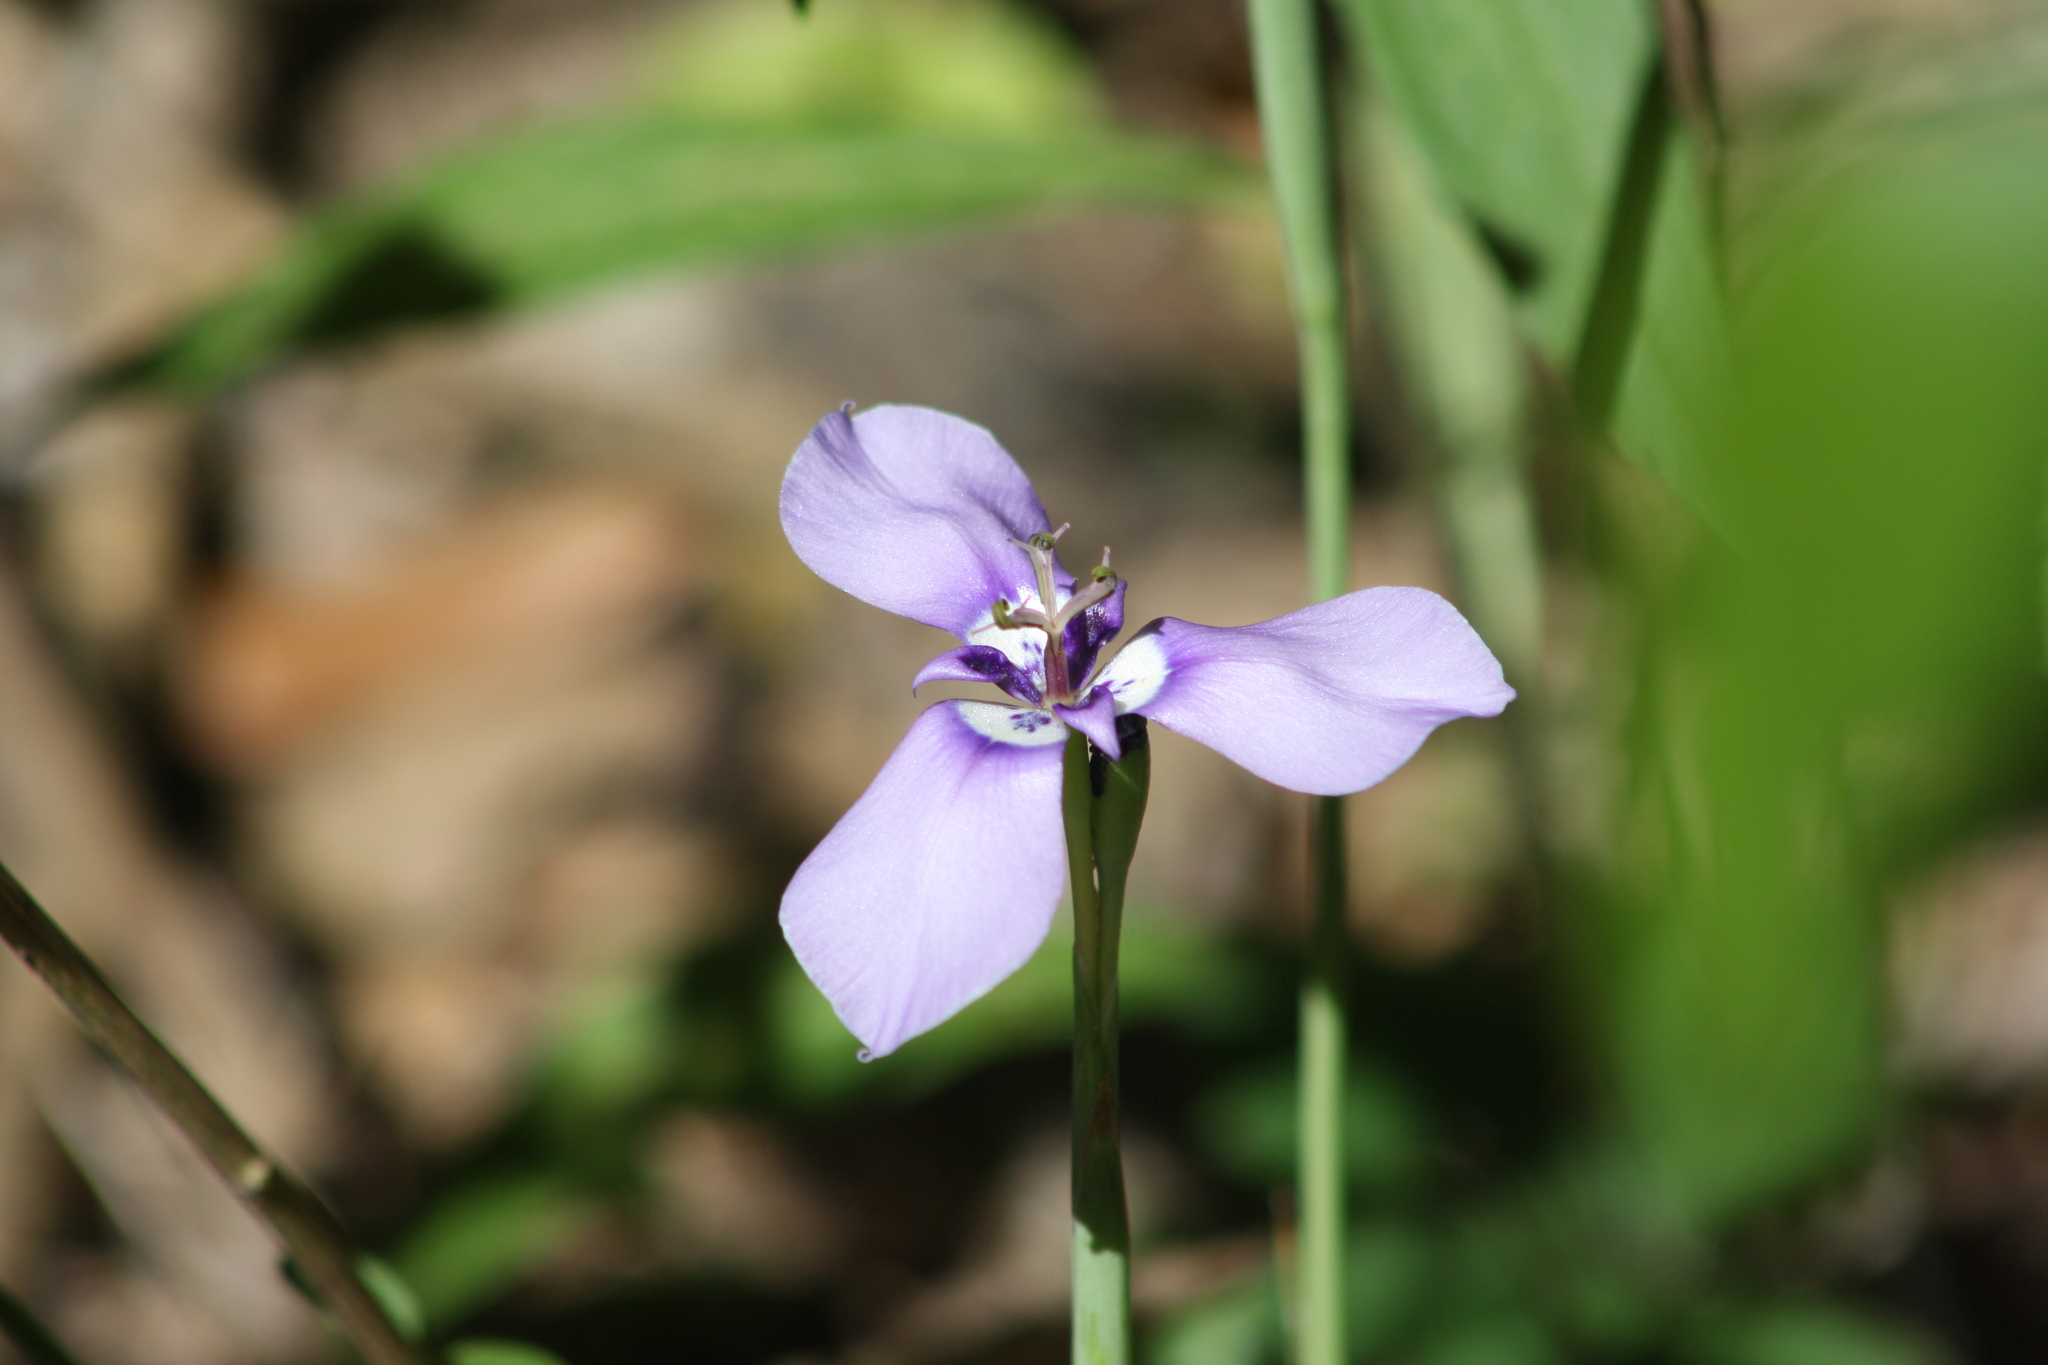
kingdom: Plantae
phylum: Tracheophyta
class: Liliopsida
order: Asparagales
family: Iridaceae
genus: Herbertia
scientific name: Herbertia lahue
